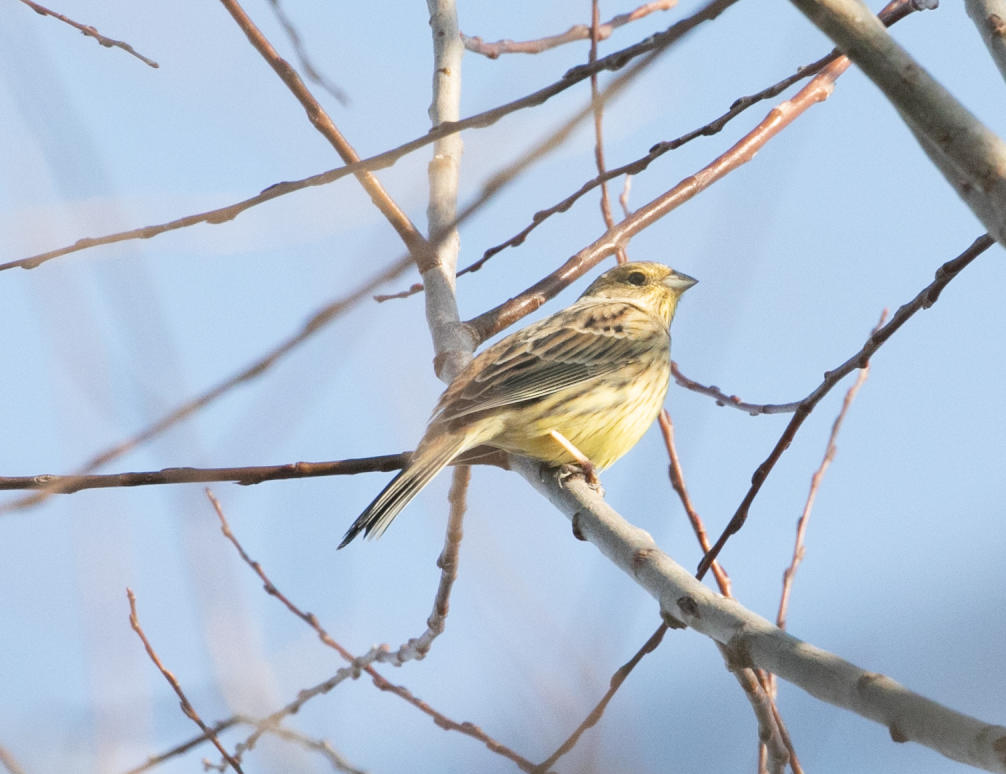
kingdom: Animalia
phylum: Chordata
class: Aves
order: Passeriformes
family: Emberizidae
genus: Emberiza
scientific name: Emberiza citrinella
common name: Yellowhammer
